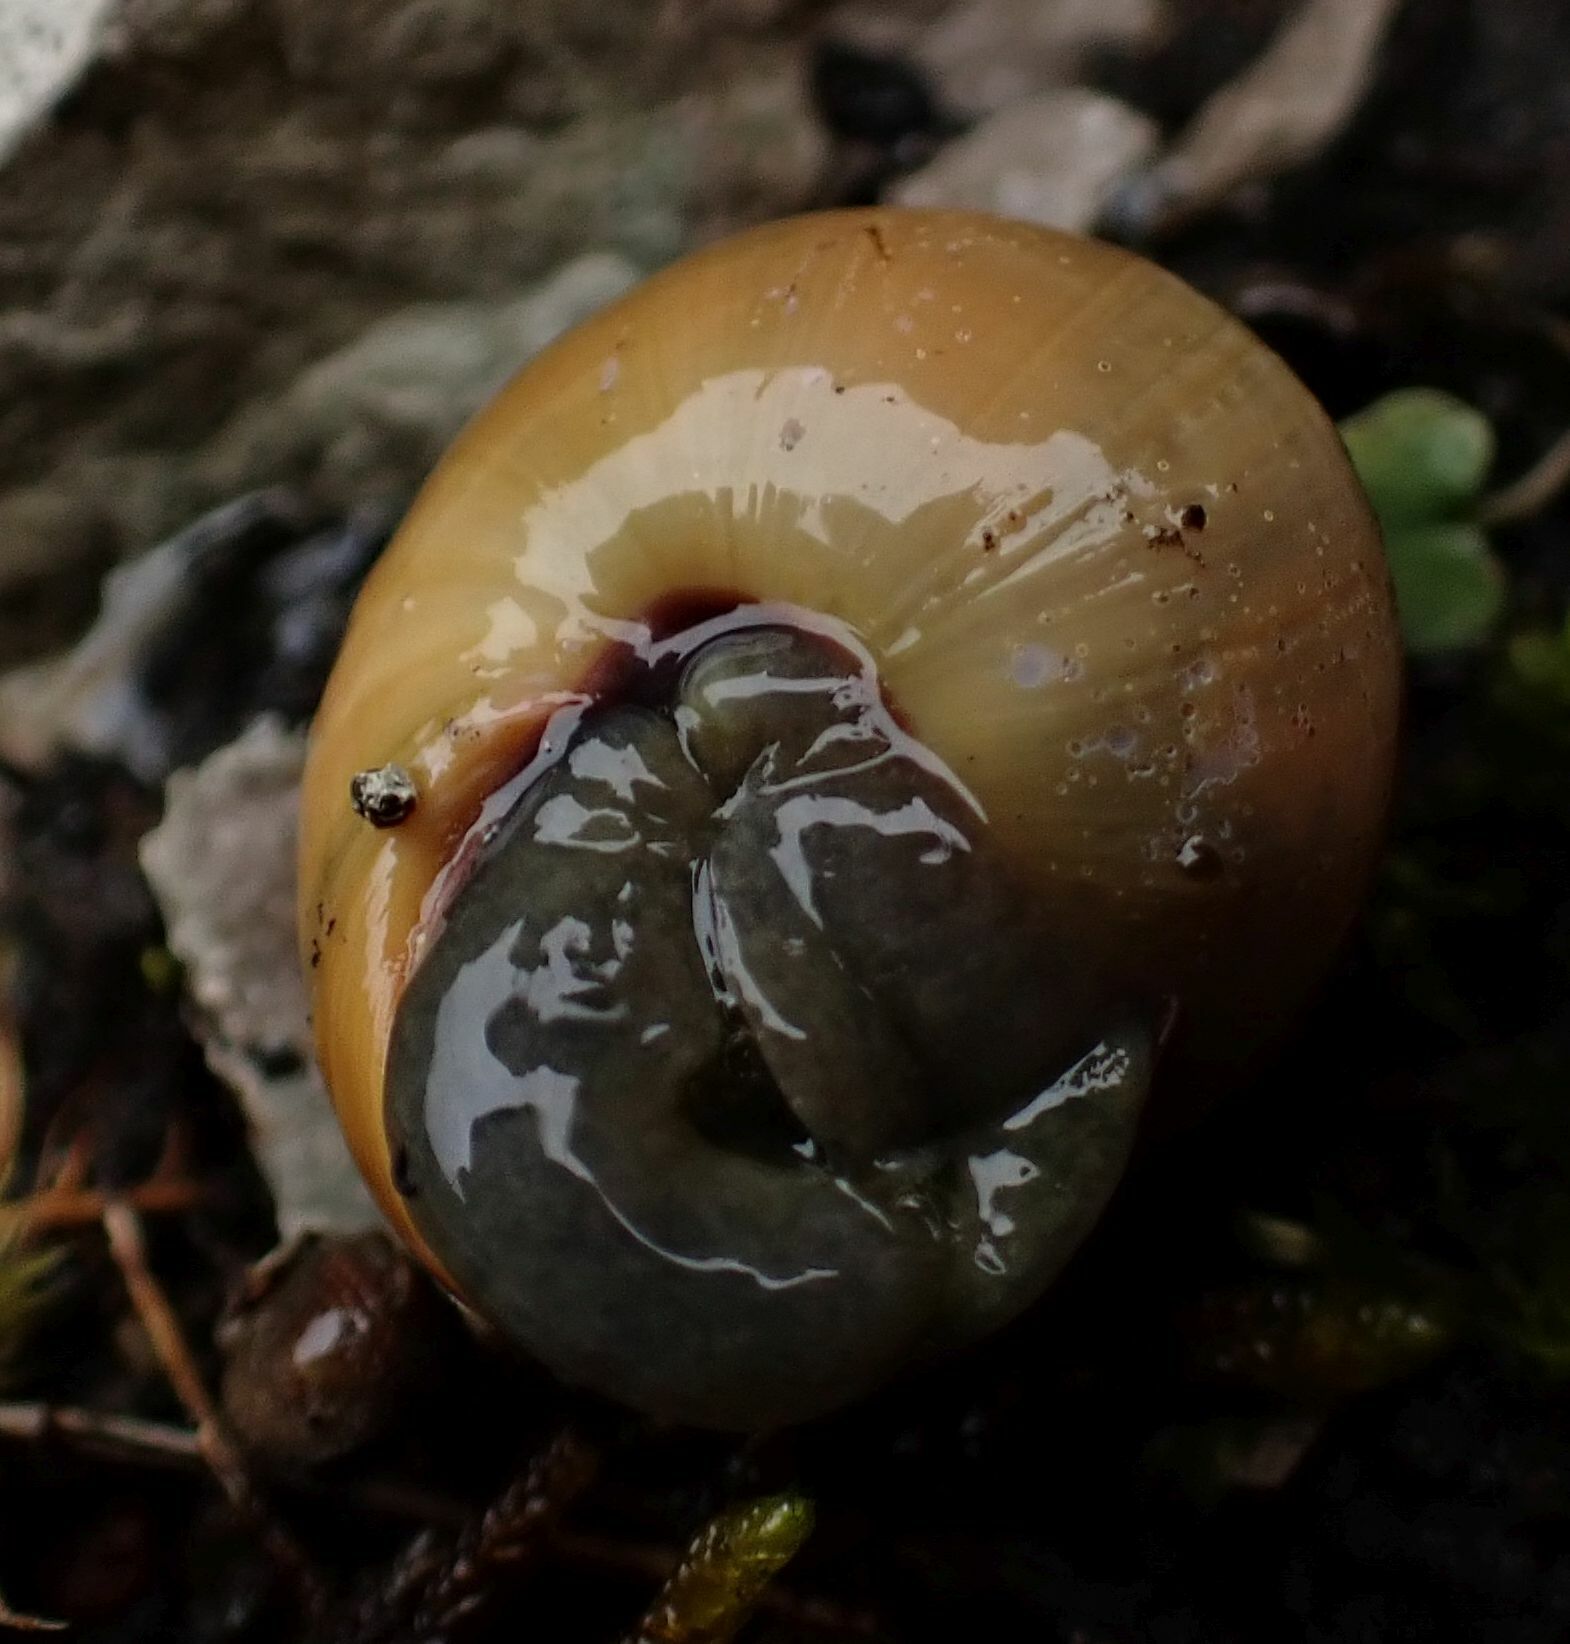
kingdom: Animalia
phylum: Mollusca
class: Gastropoda
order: Stylommatophora
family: Helicidae
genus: Cepaea
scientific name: Cepaea nemoralis
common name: Grovesnail
